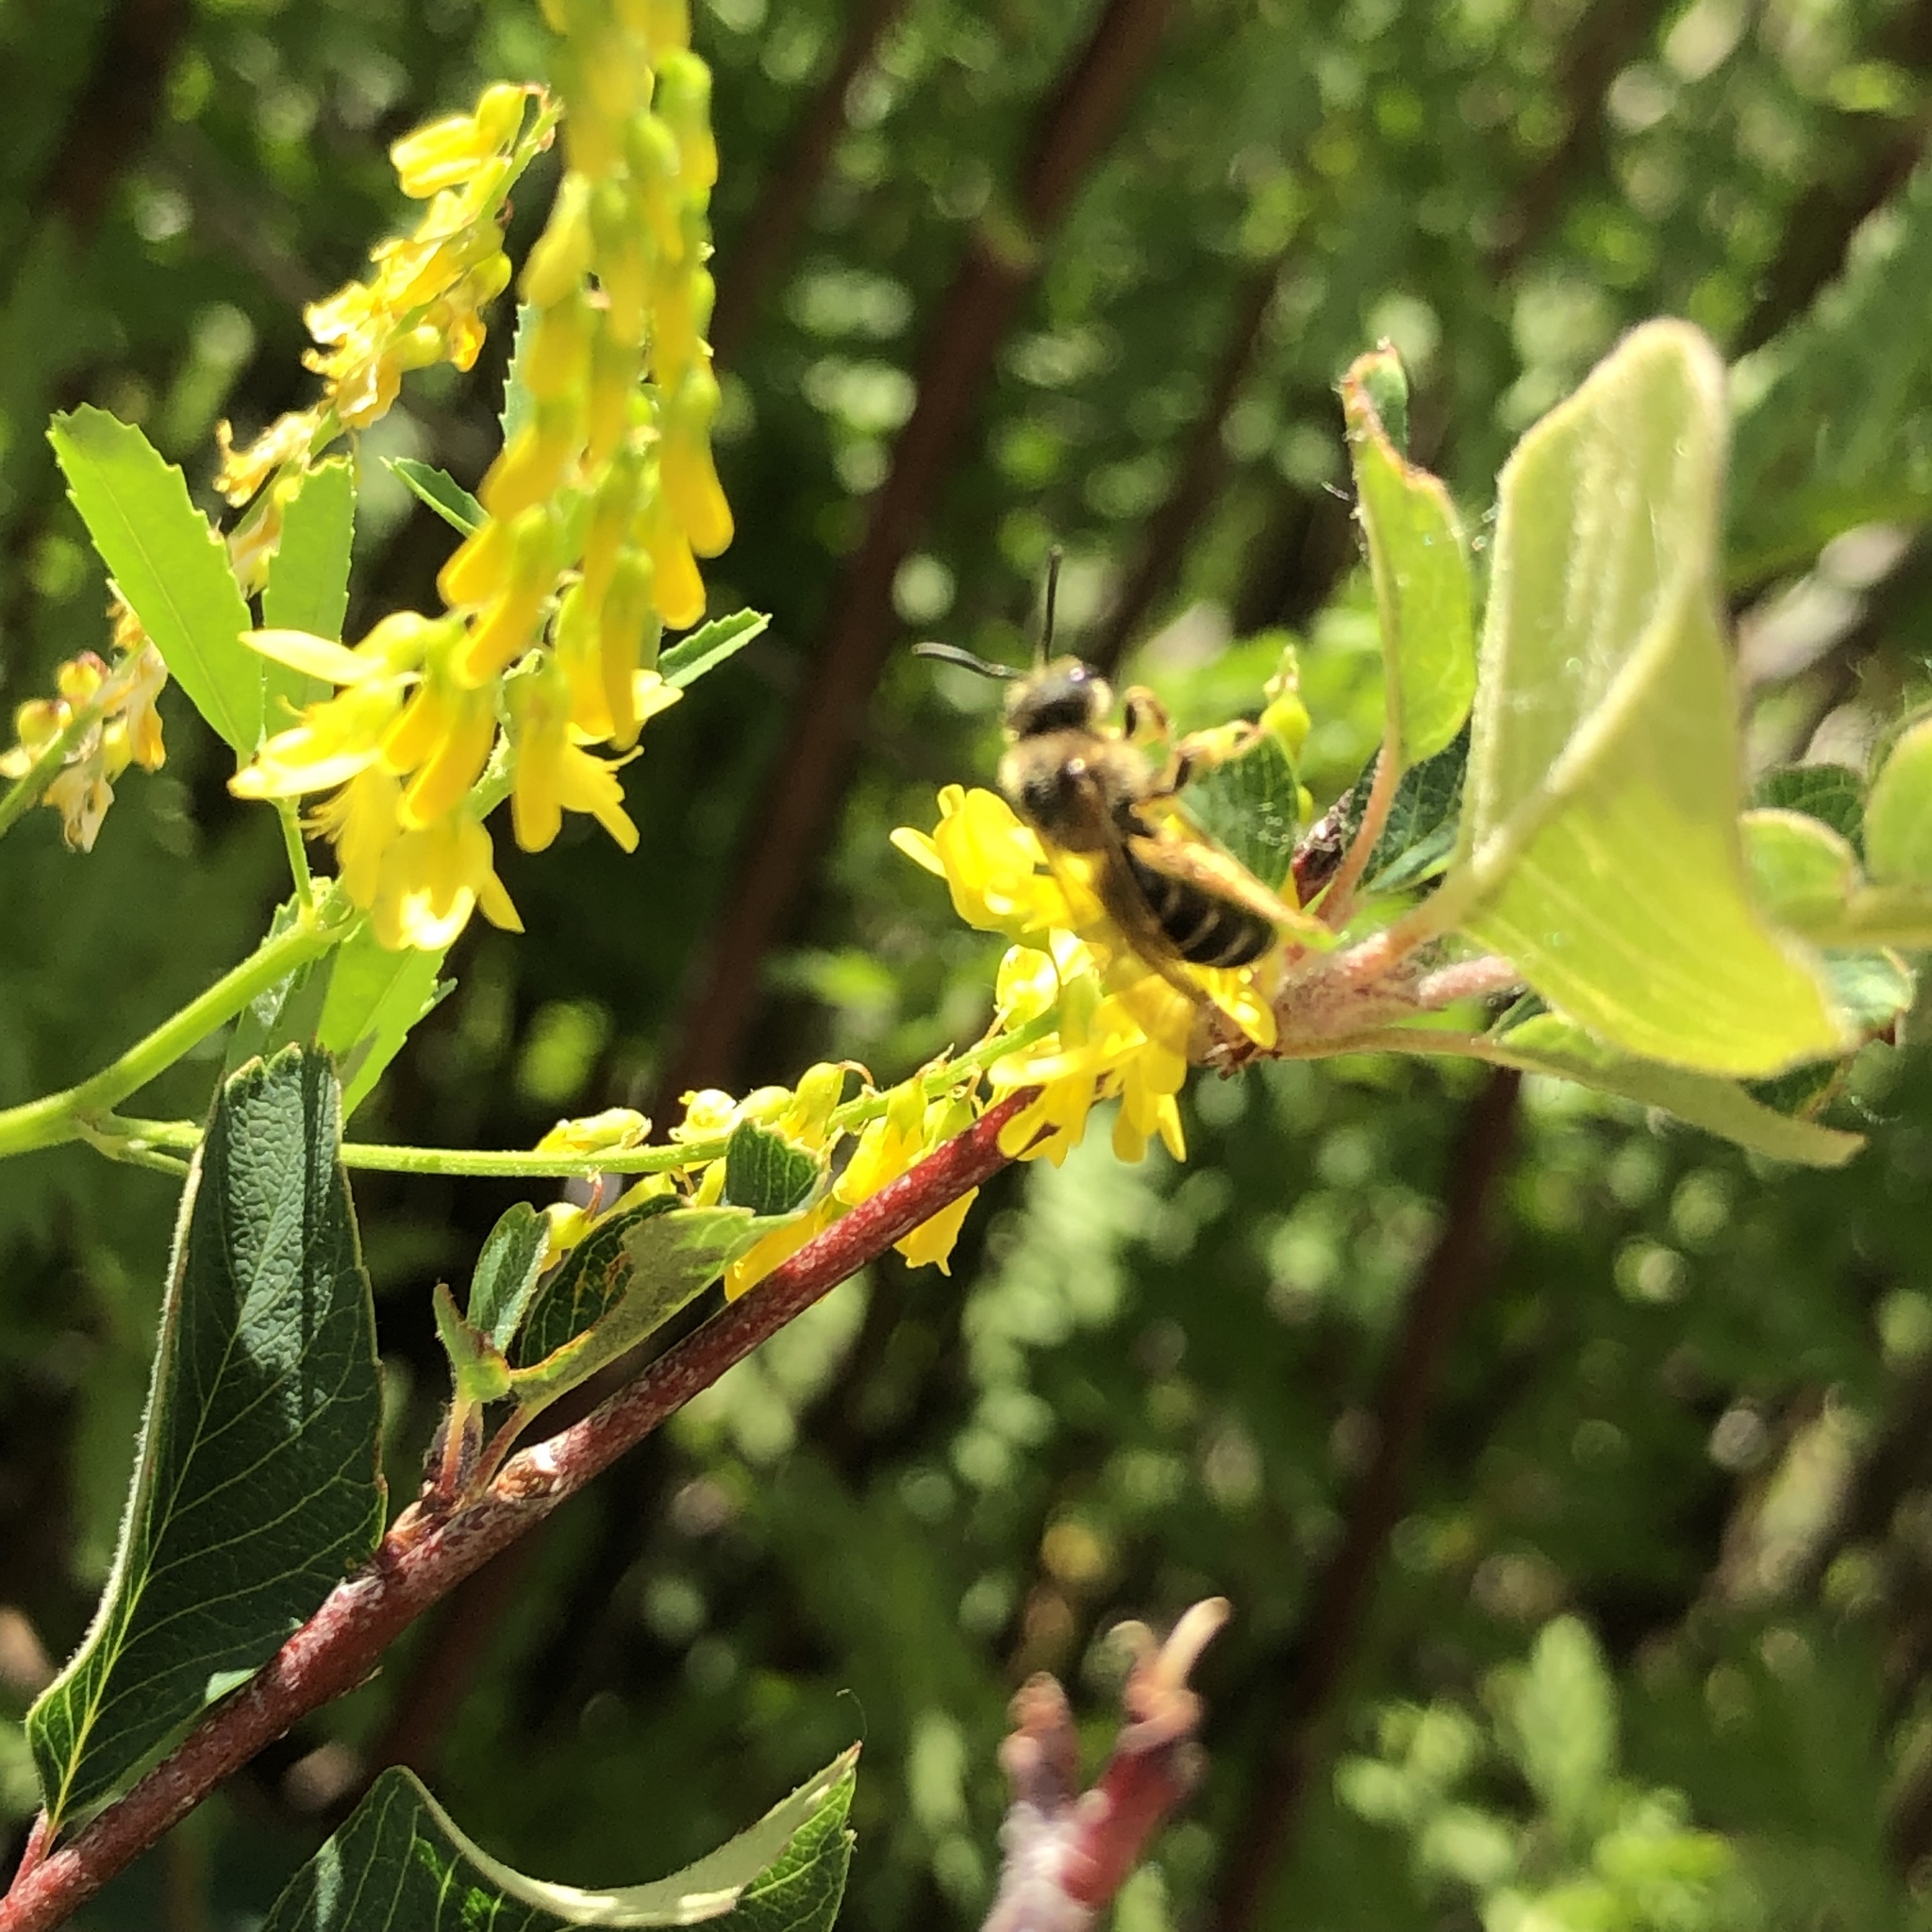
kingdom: Animalia
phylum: Arthropoda
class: Insecta
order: Hymenoptera
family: Halictidae
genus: Halictus
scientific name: Halictus rubicundus
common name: Orange-legged furrow bee
